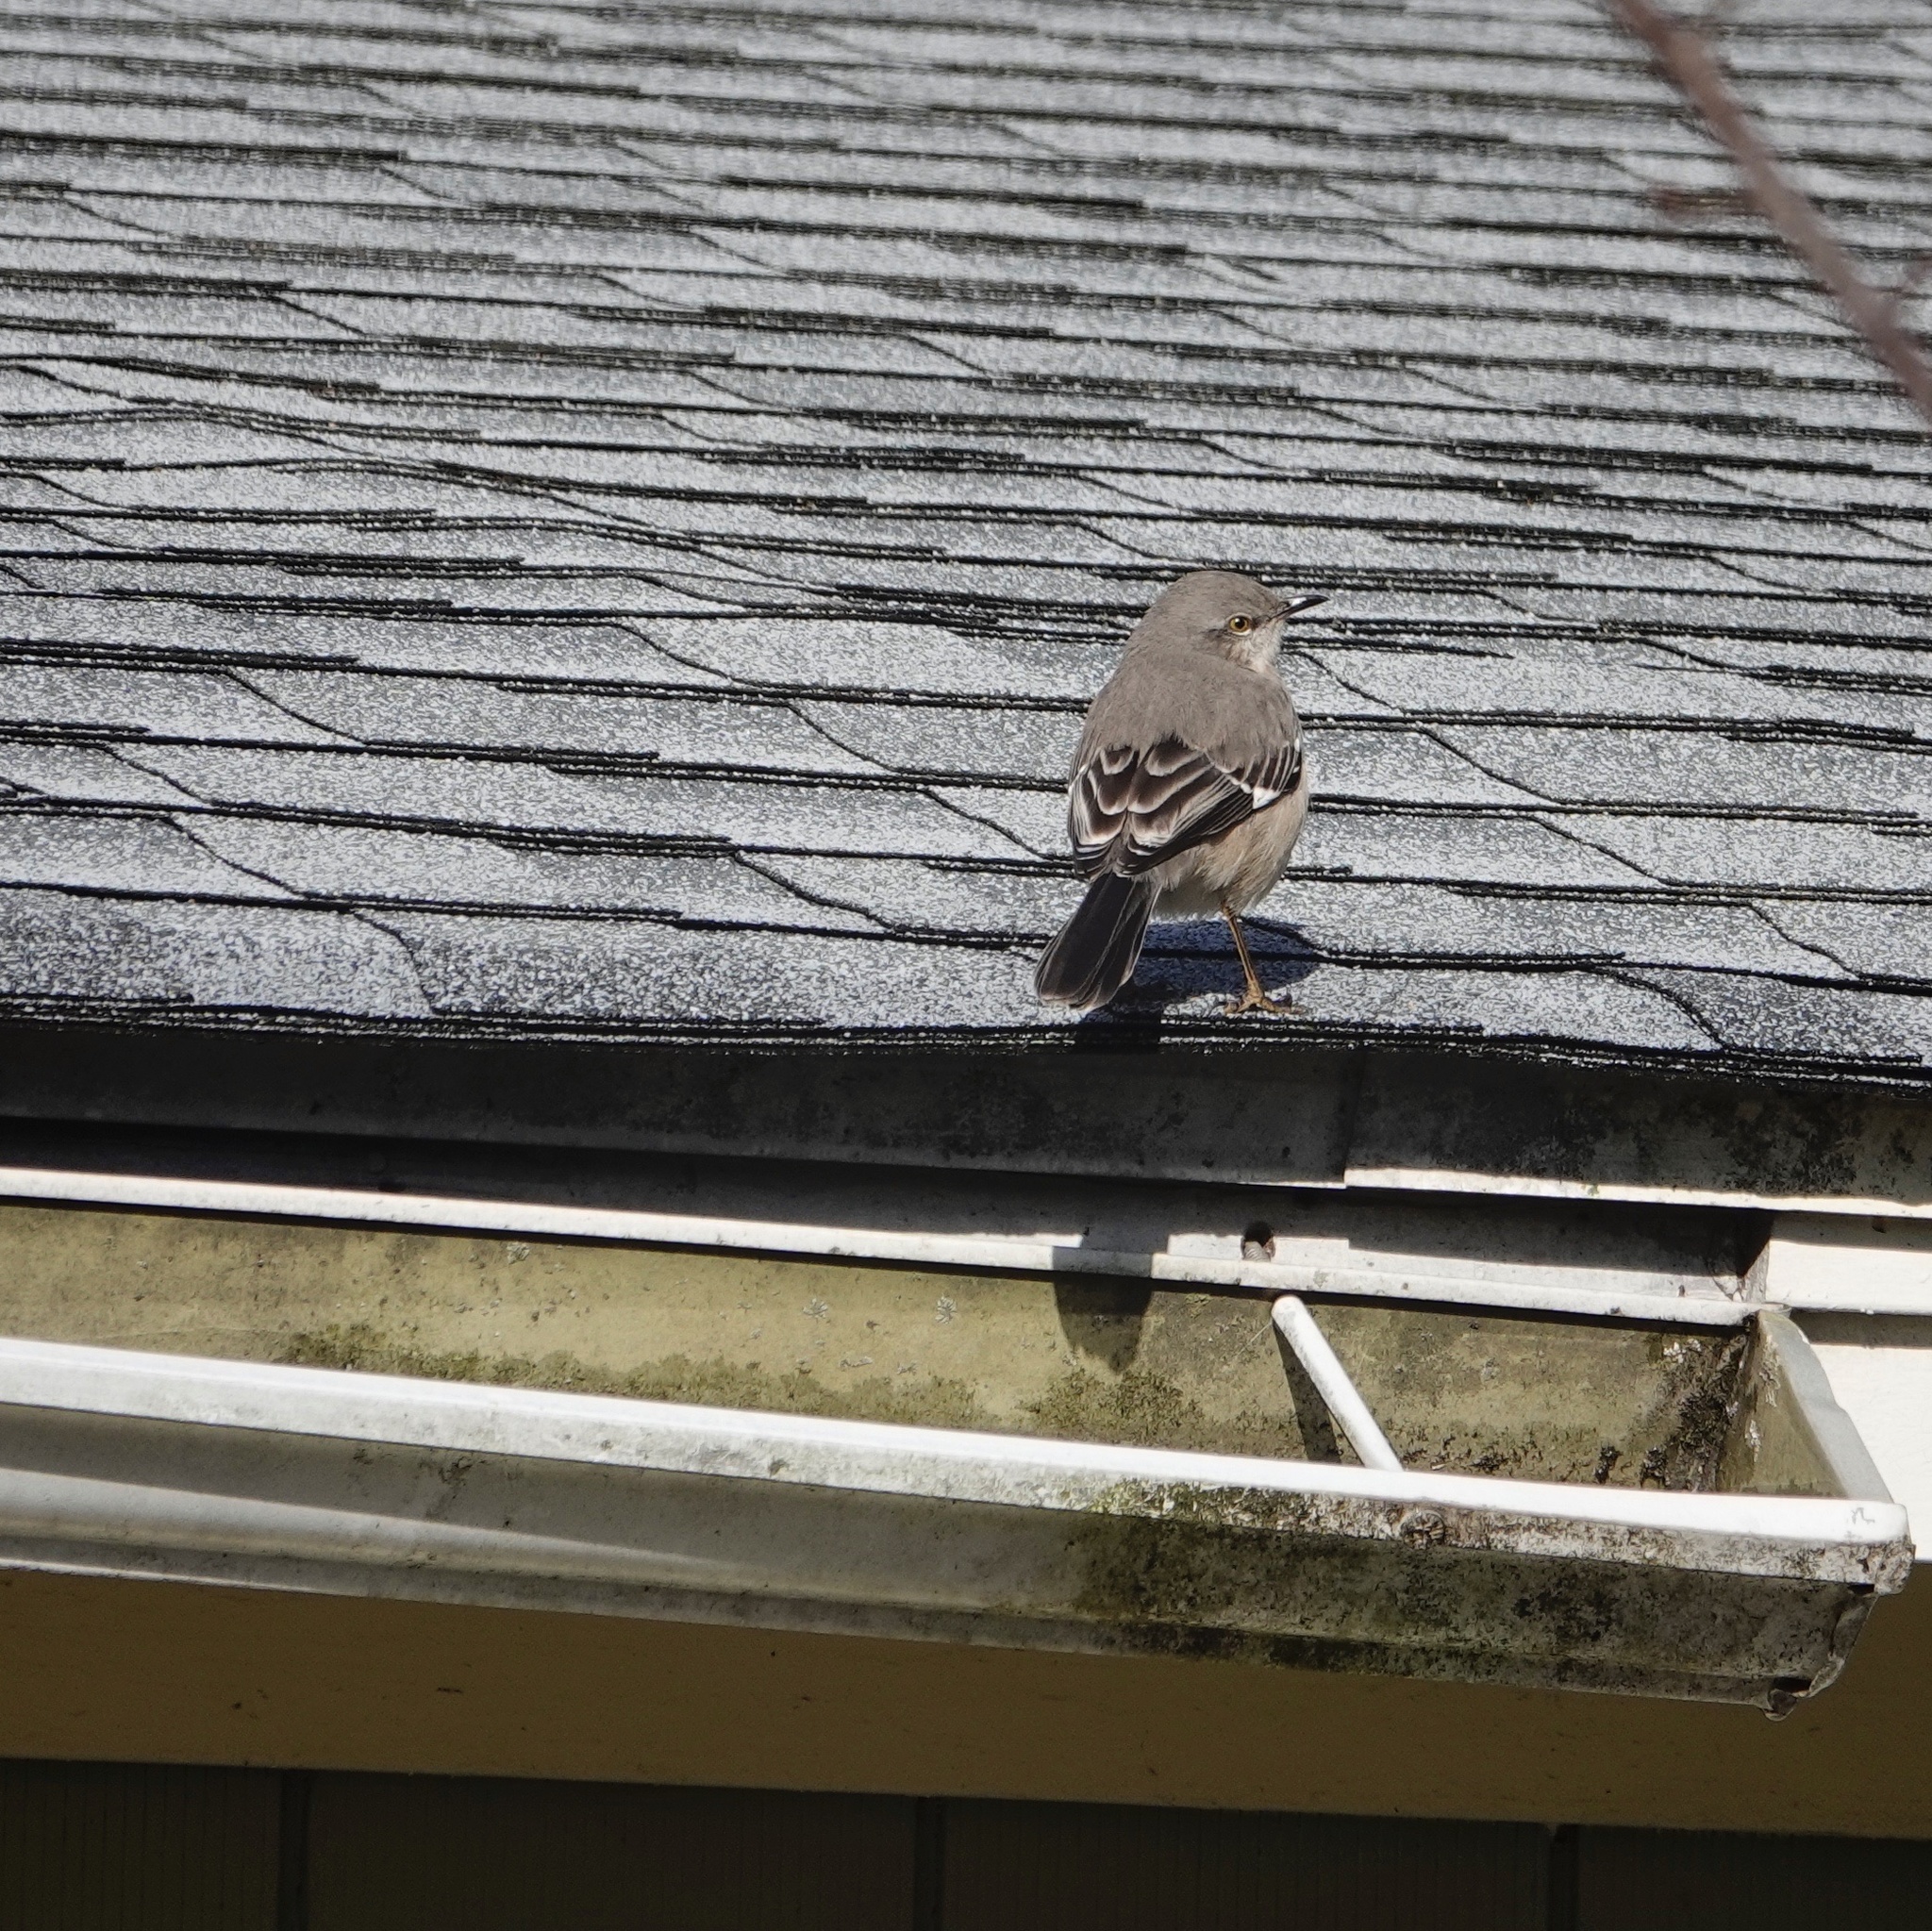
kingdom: Animalia
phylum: Chordata
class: Aves
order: Passeriformes
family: Mimidae
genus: Mimus
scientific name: Mimus polyglottos
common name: Northern mockingbird
